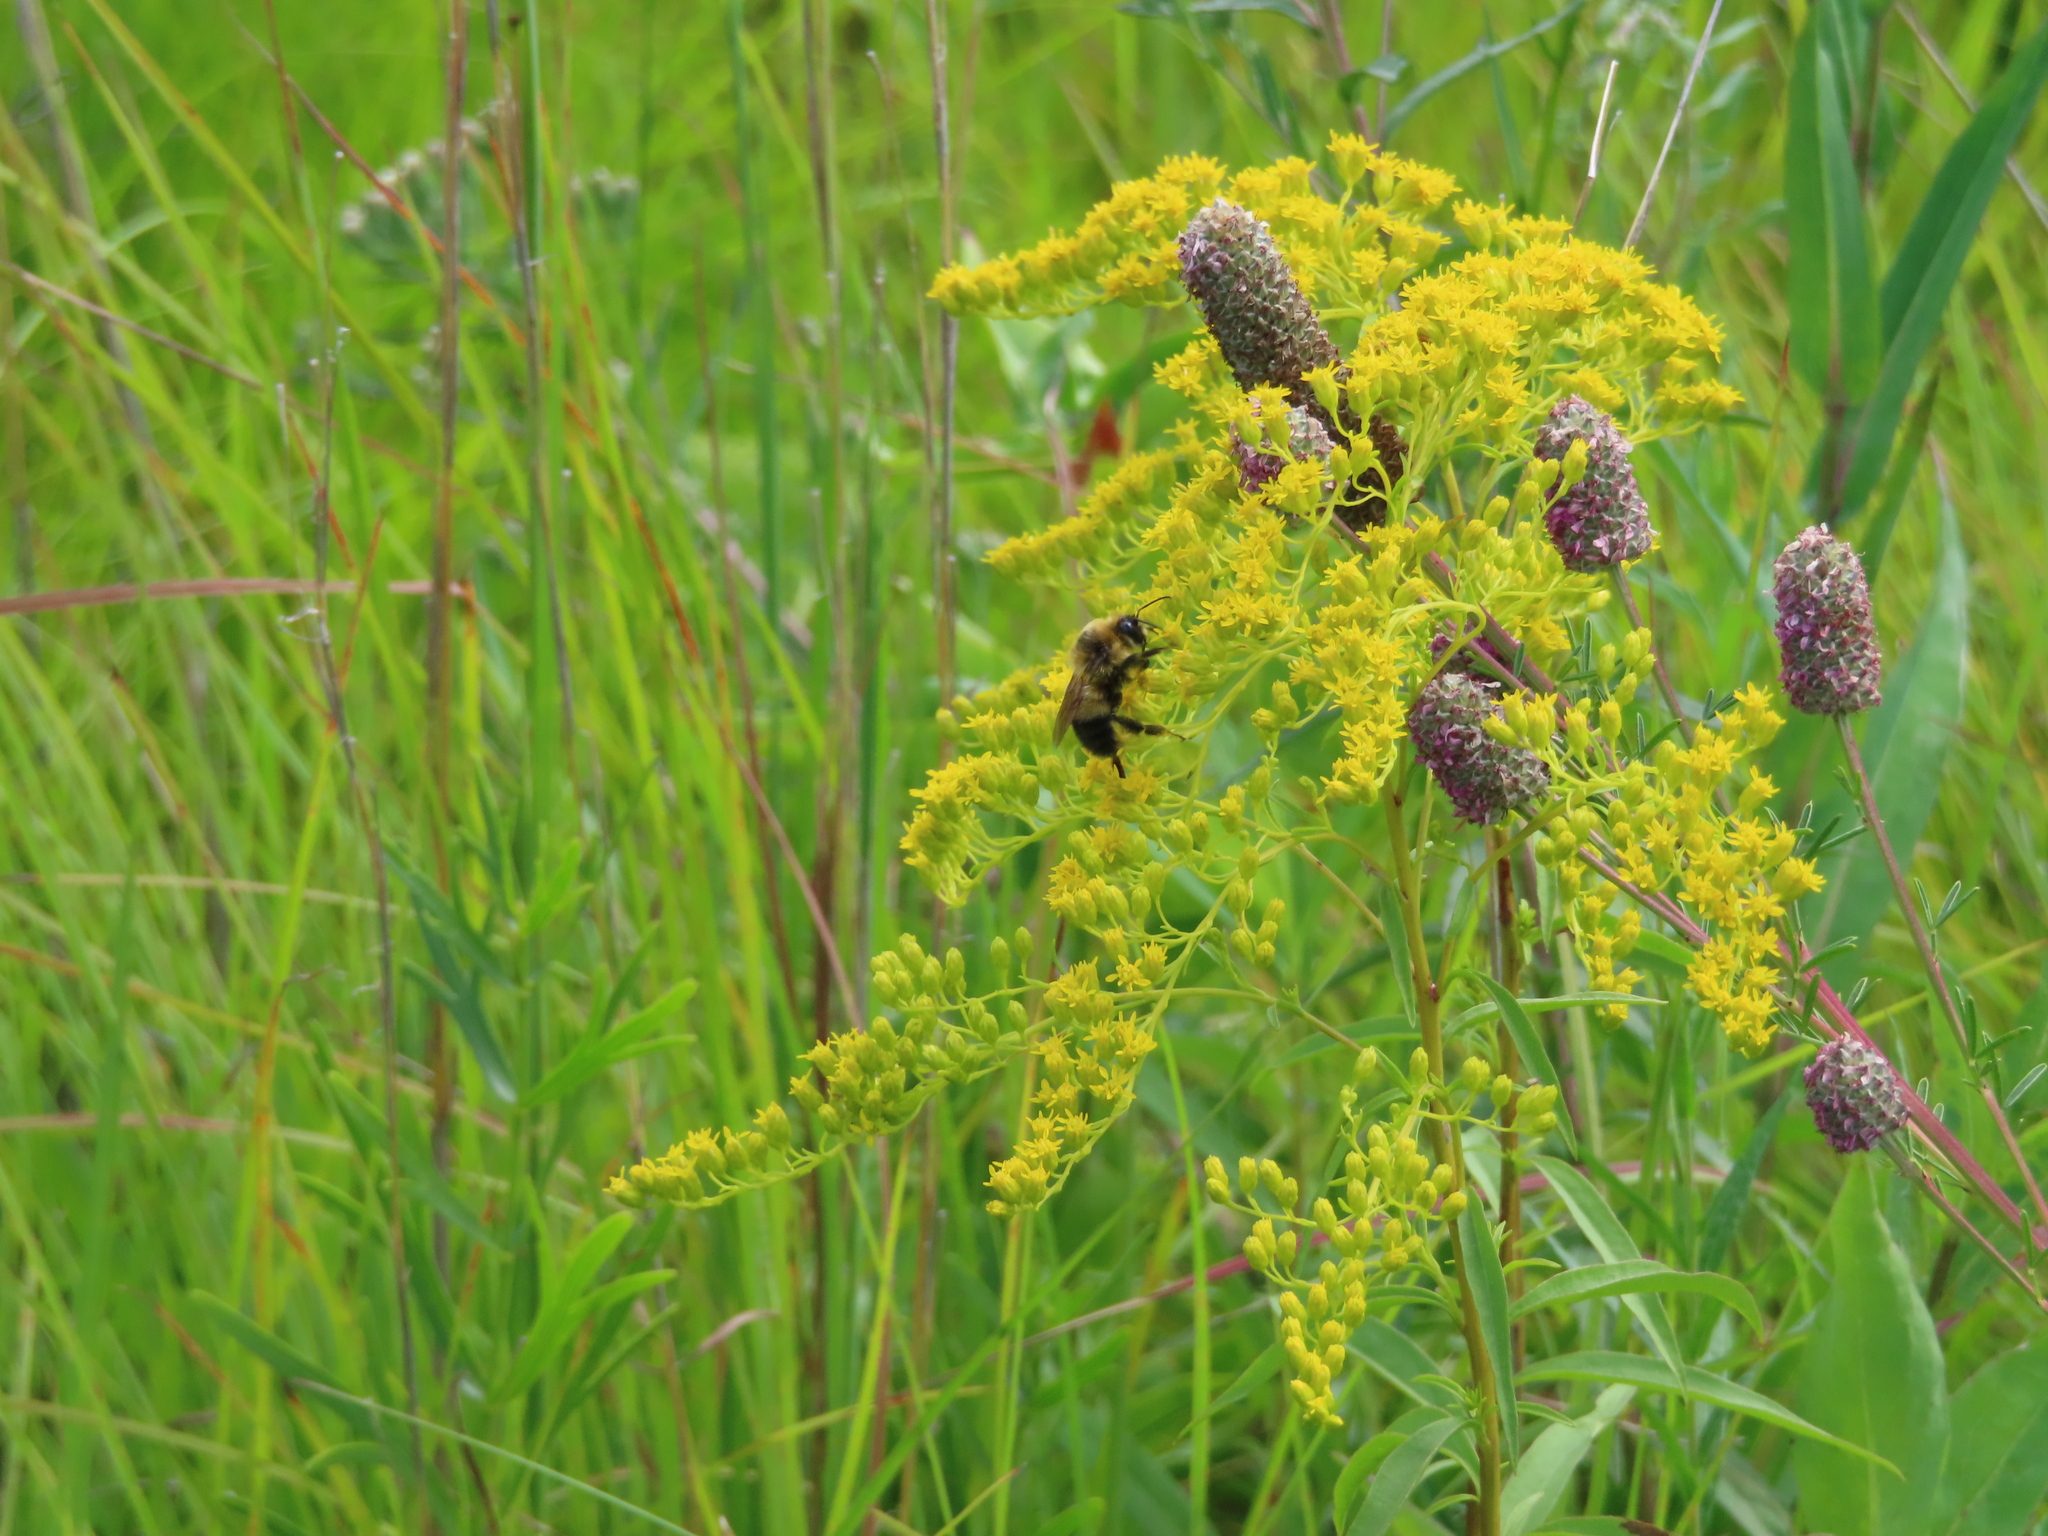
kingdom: Animalia
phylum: Arthropoda
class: Insecta
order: Hymenoptera
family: Apidae
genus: Bombus
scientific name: Bombus rufocinctus
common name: Red-belted bumble bee
